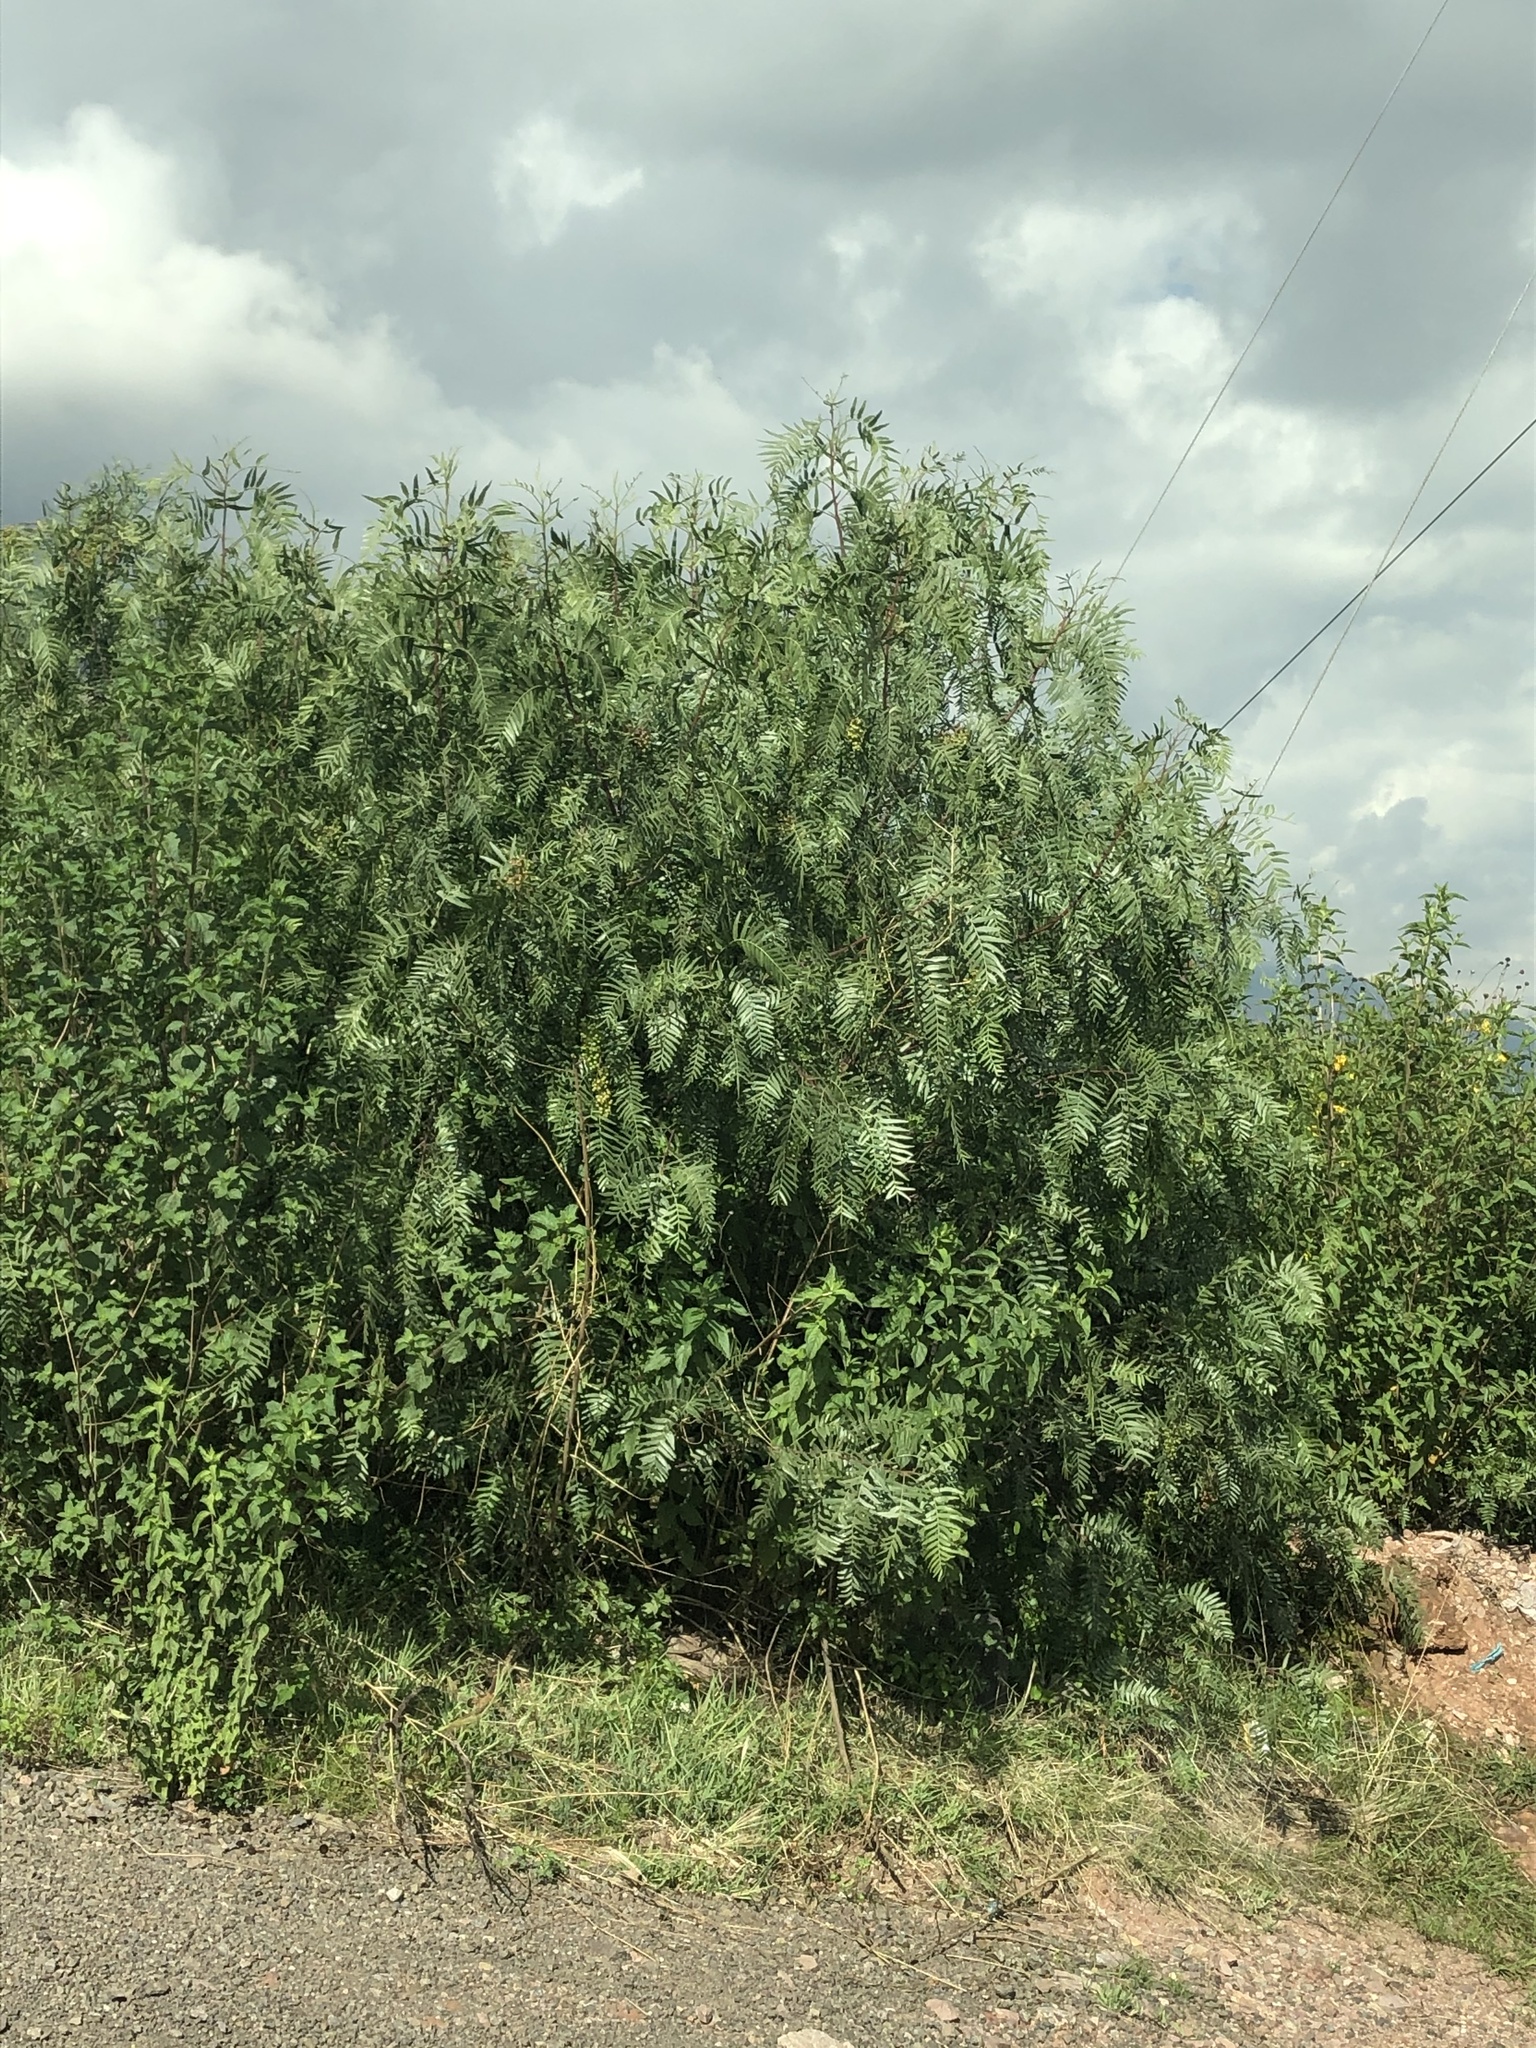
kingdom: Plantae
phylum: Tracheophyta
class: Magnoliopsida
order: Sapindales
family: Anacardiaceae
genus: Schinus
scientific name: Schinus molle
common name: Peruvian peppertree
